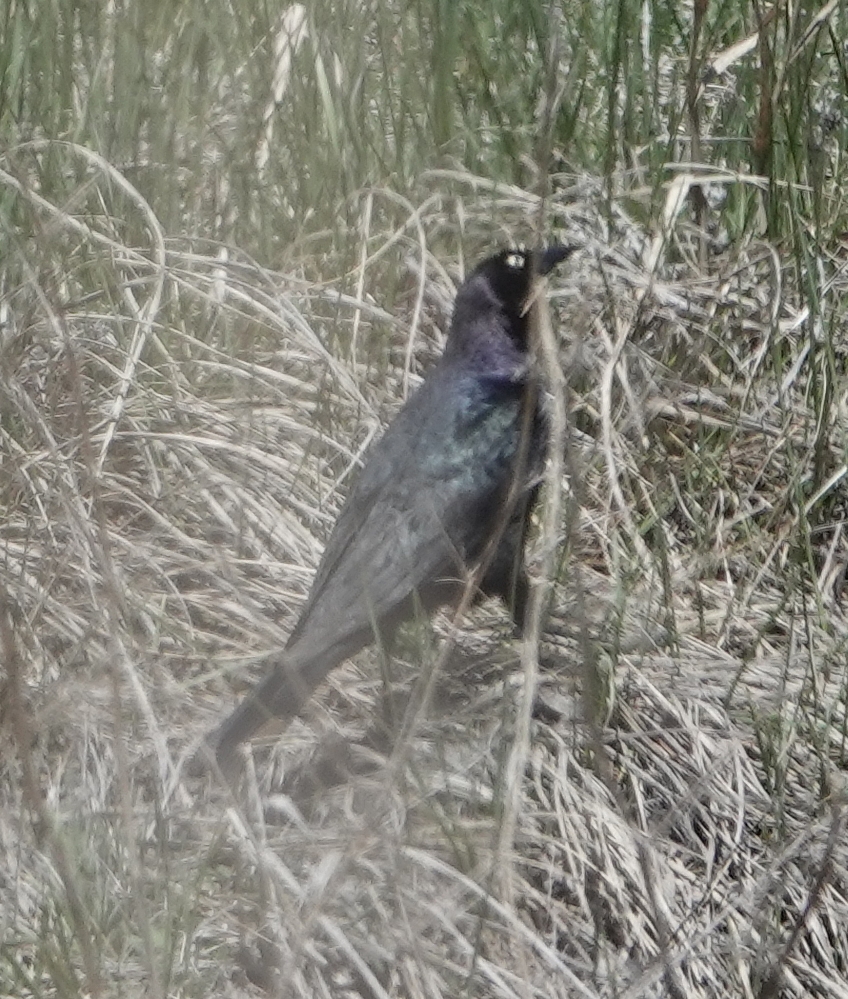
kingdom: Animalia
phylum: Chordata
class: Aves
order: Passeriformes
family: Icteridae
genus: Euphagus
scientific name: Euphagus cyanocephalus
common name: Brewer's blackbird
